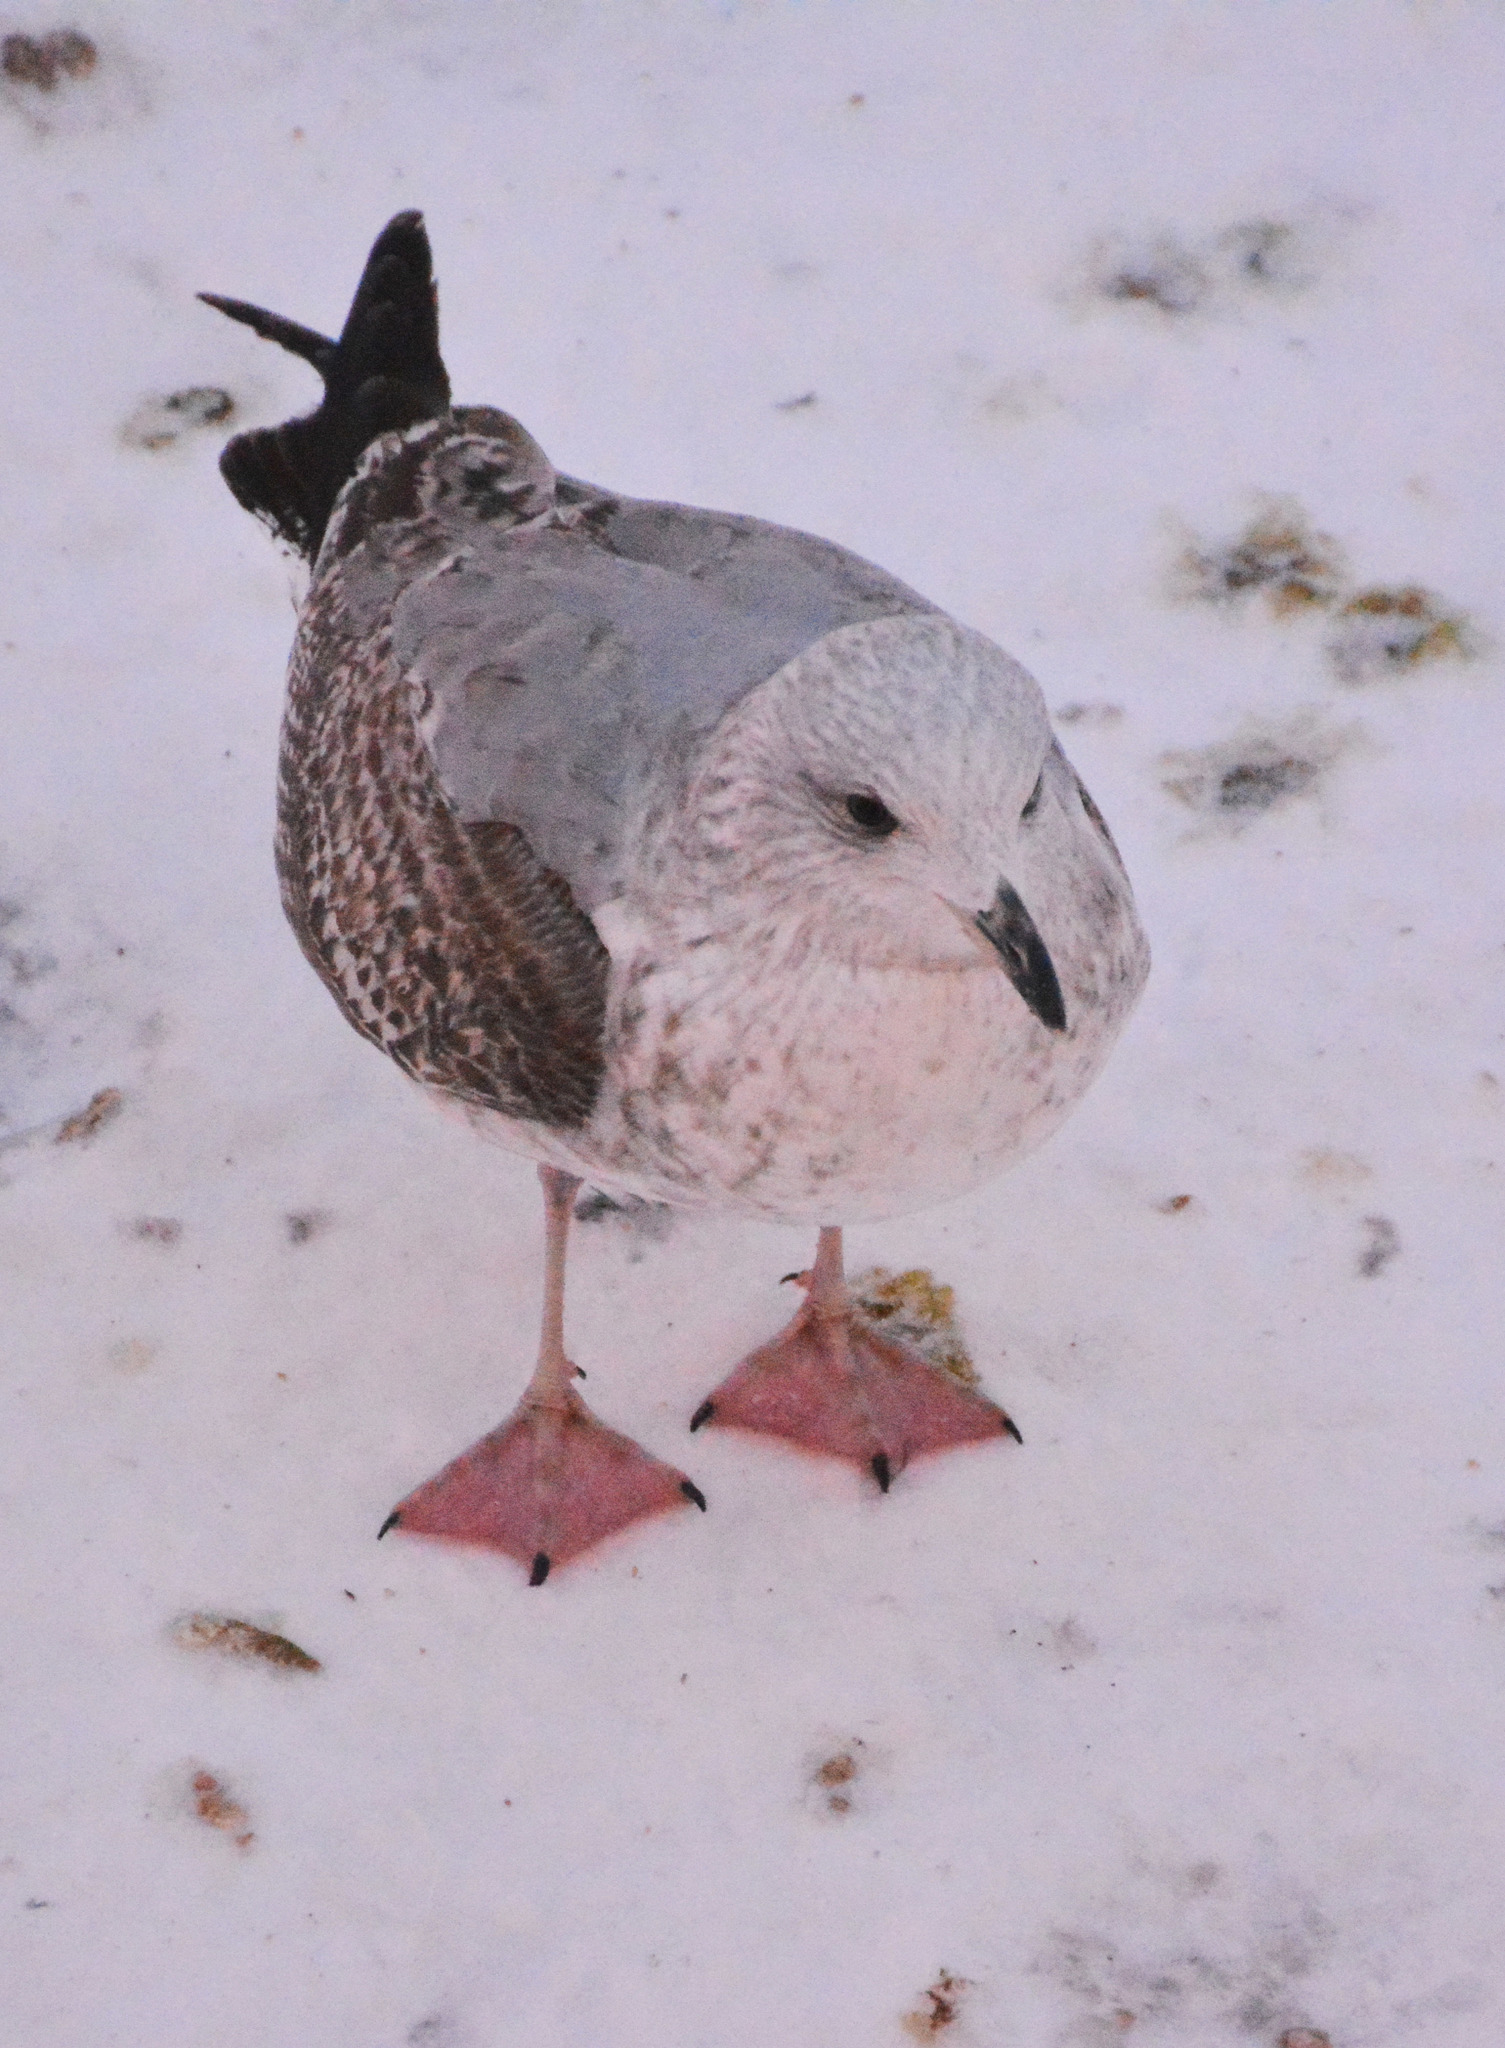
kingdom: Animalia
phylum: Chordata
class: Aves
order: Charadriiformes
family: Laridae
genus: Larus
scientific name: Larus argentatus
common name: Herring gull
